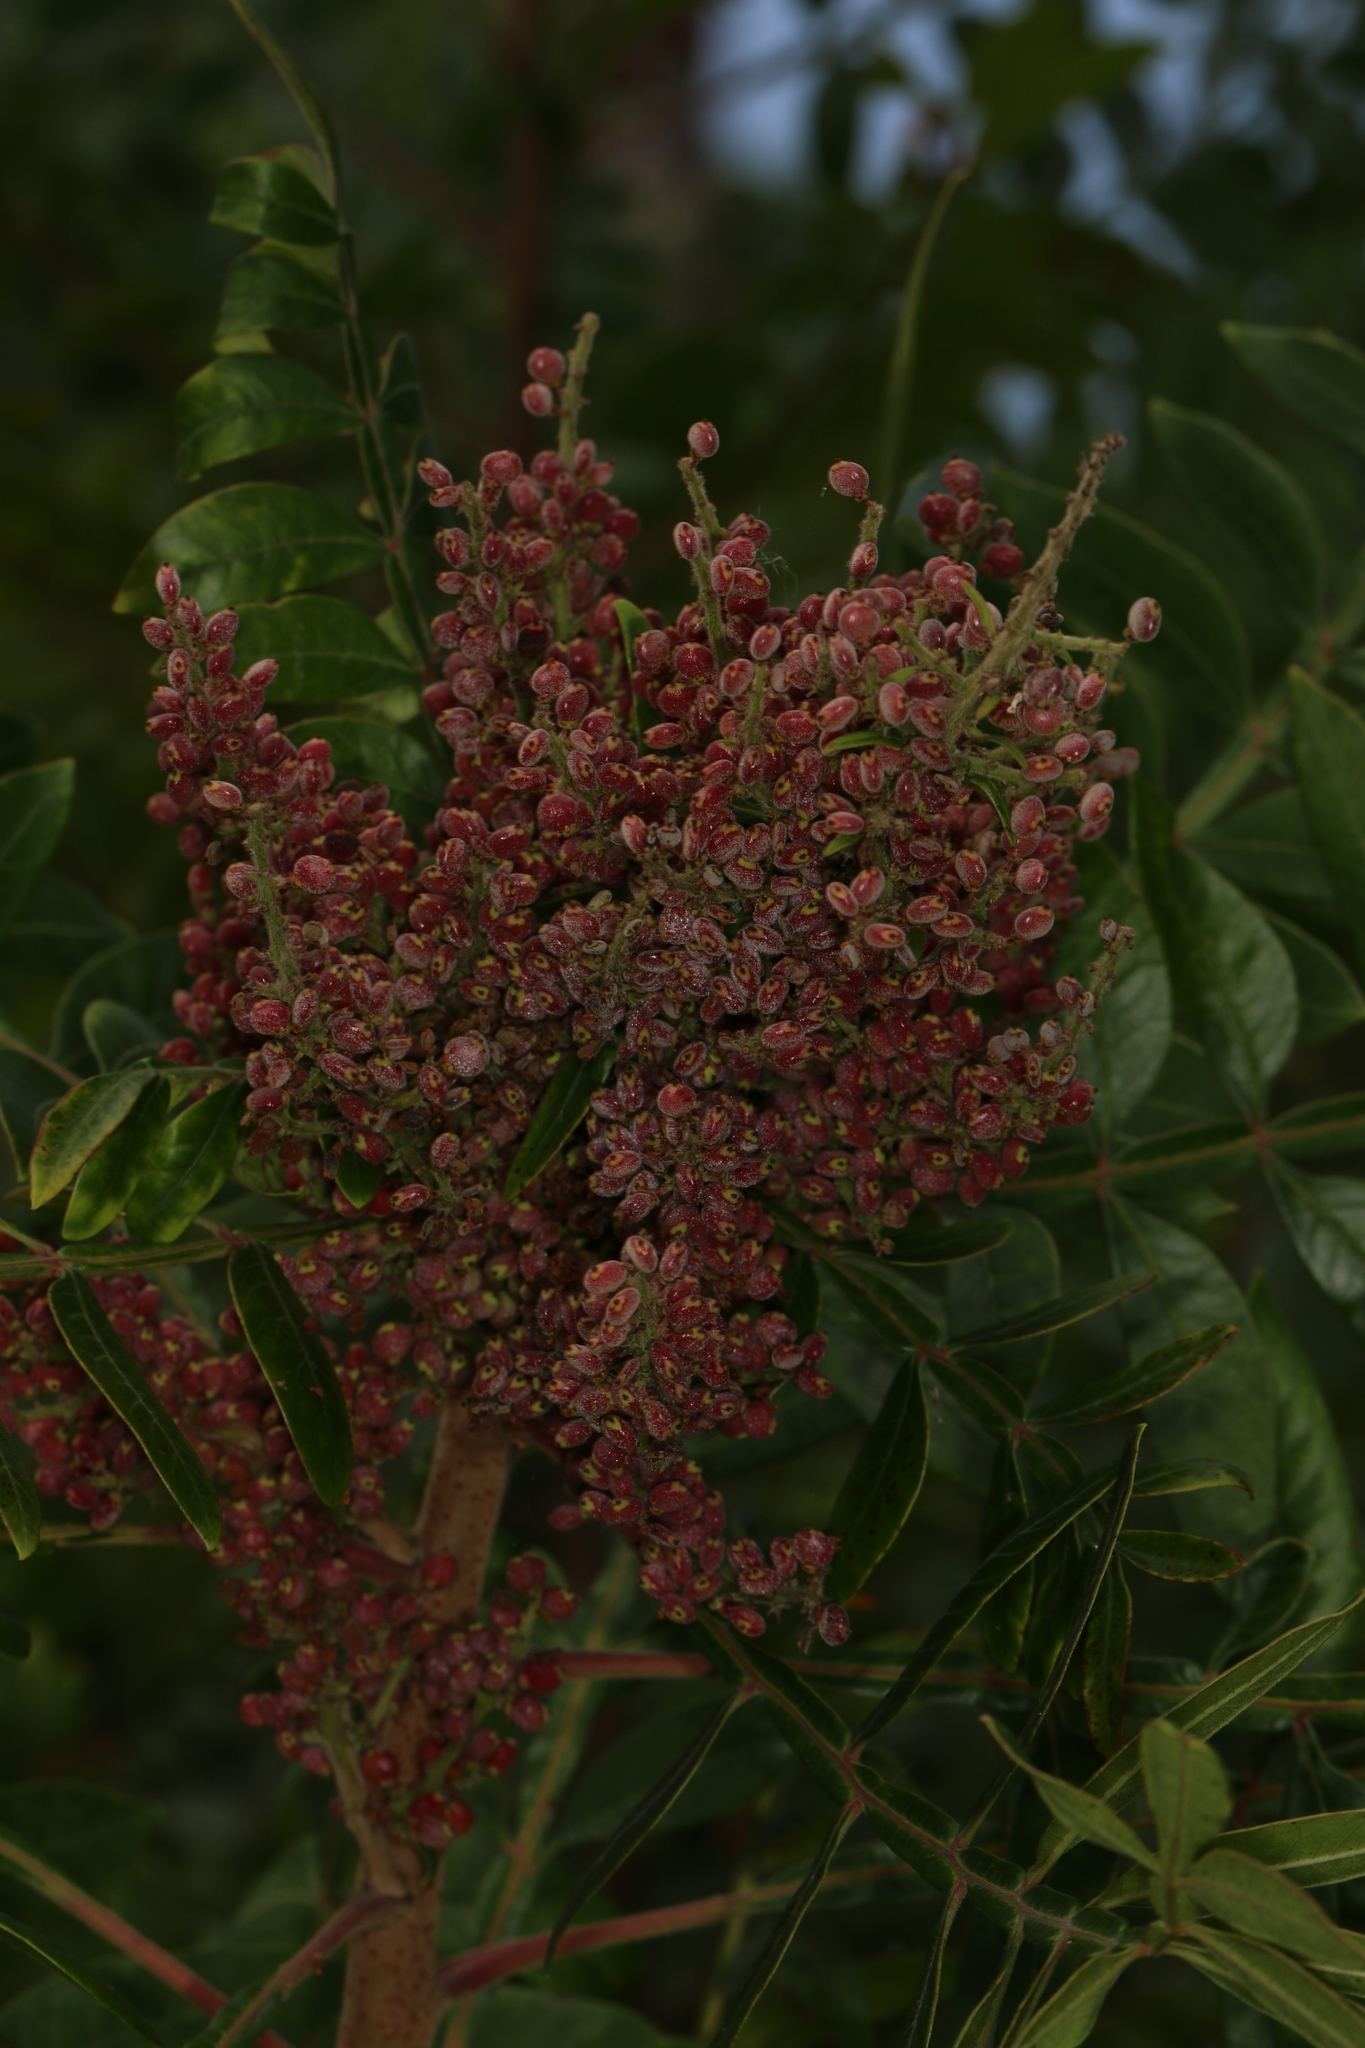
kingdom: Plantae
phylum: Tracheophyta
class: Magnoliopsida
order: Sapindales
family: Anacardiaceae
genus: Rhus
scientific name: Rhus copallina
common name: Shining sumac
